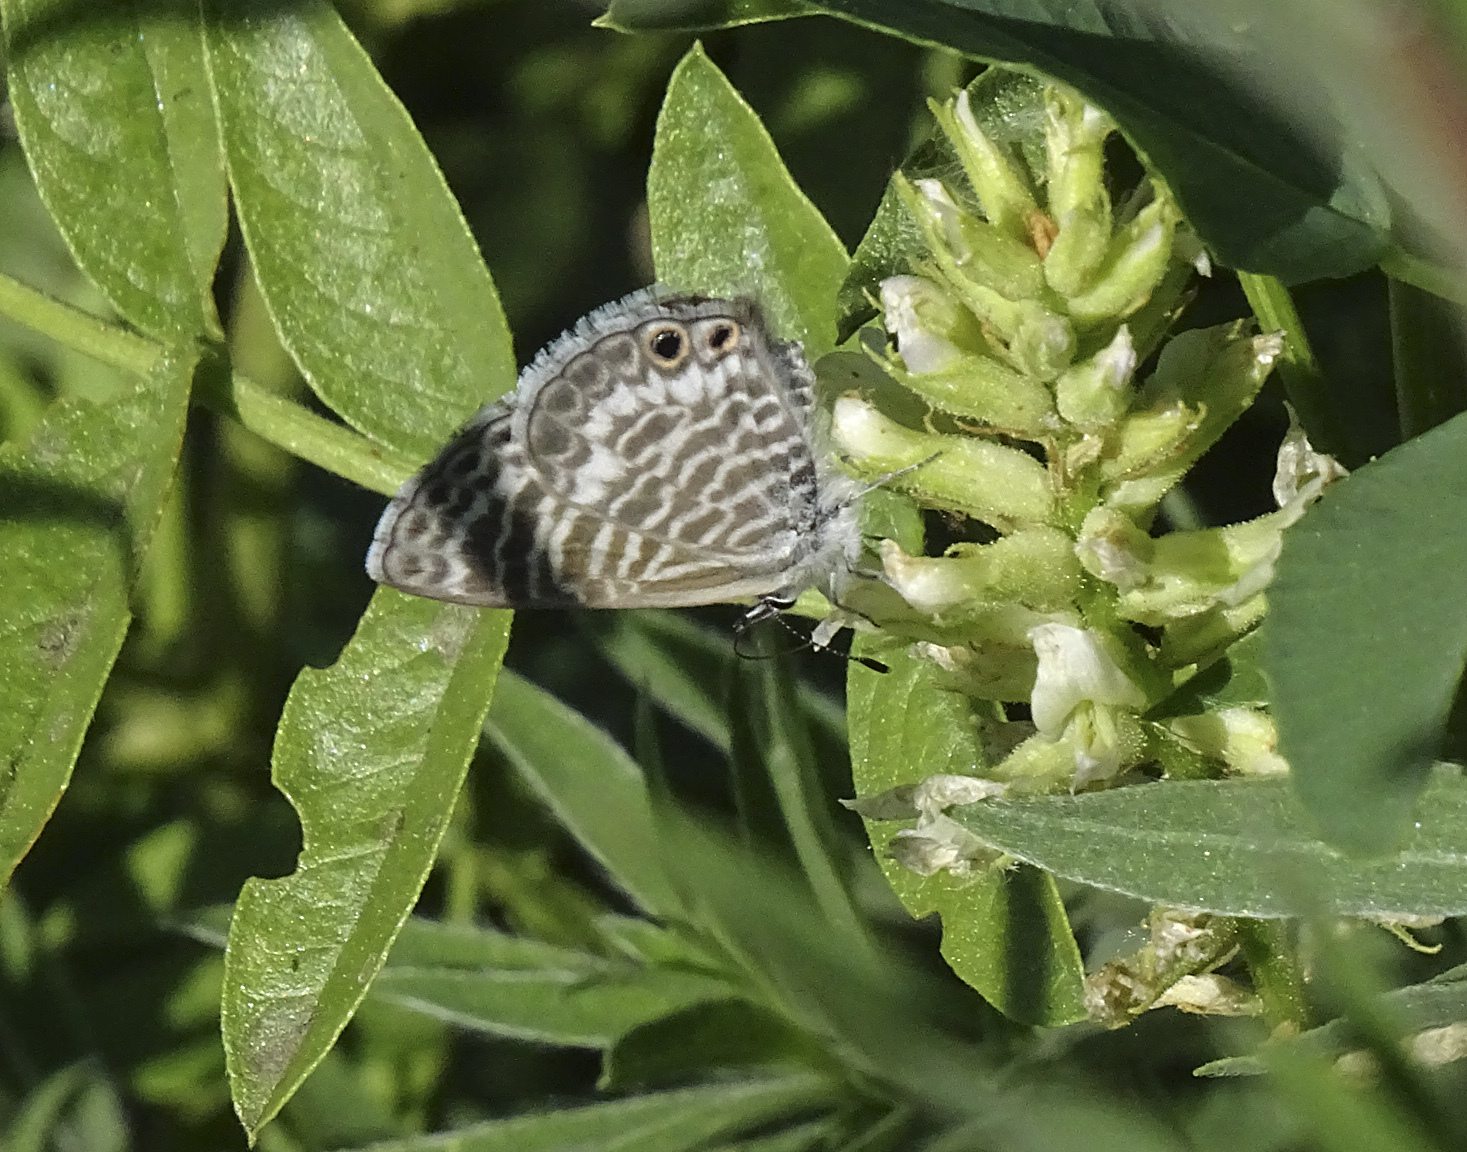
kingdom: Animalia
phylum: Arthropoda
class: Insecta
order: Lepidoptera
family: Lycaenidae
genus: Leptotes
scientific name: Leptotes marina
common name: Marine blue
